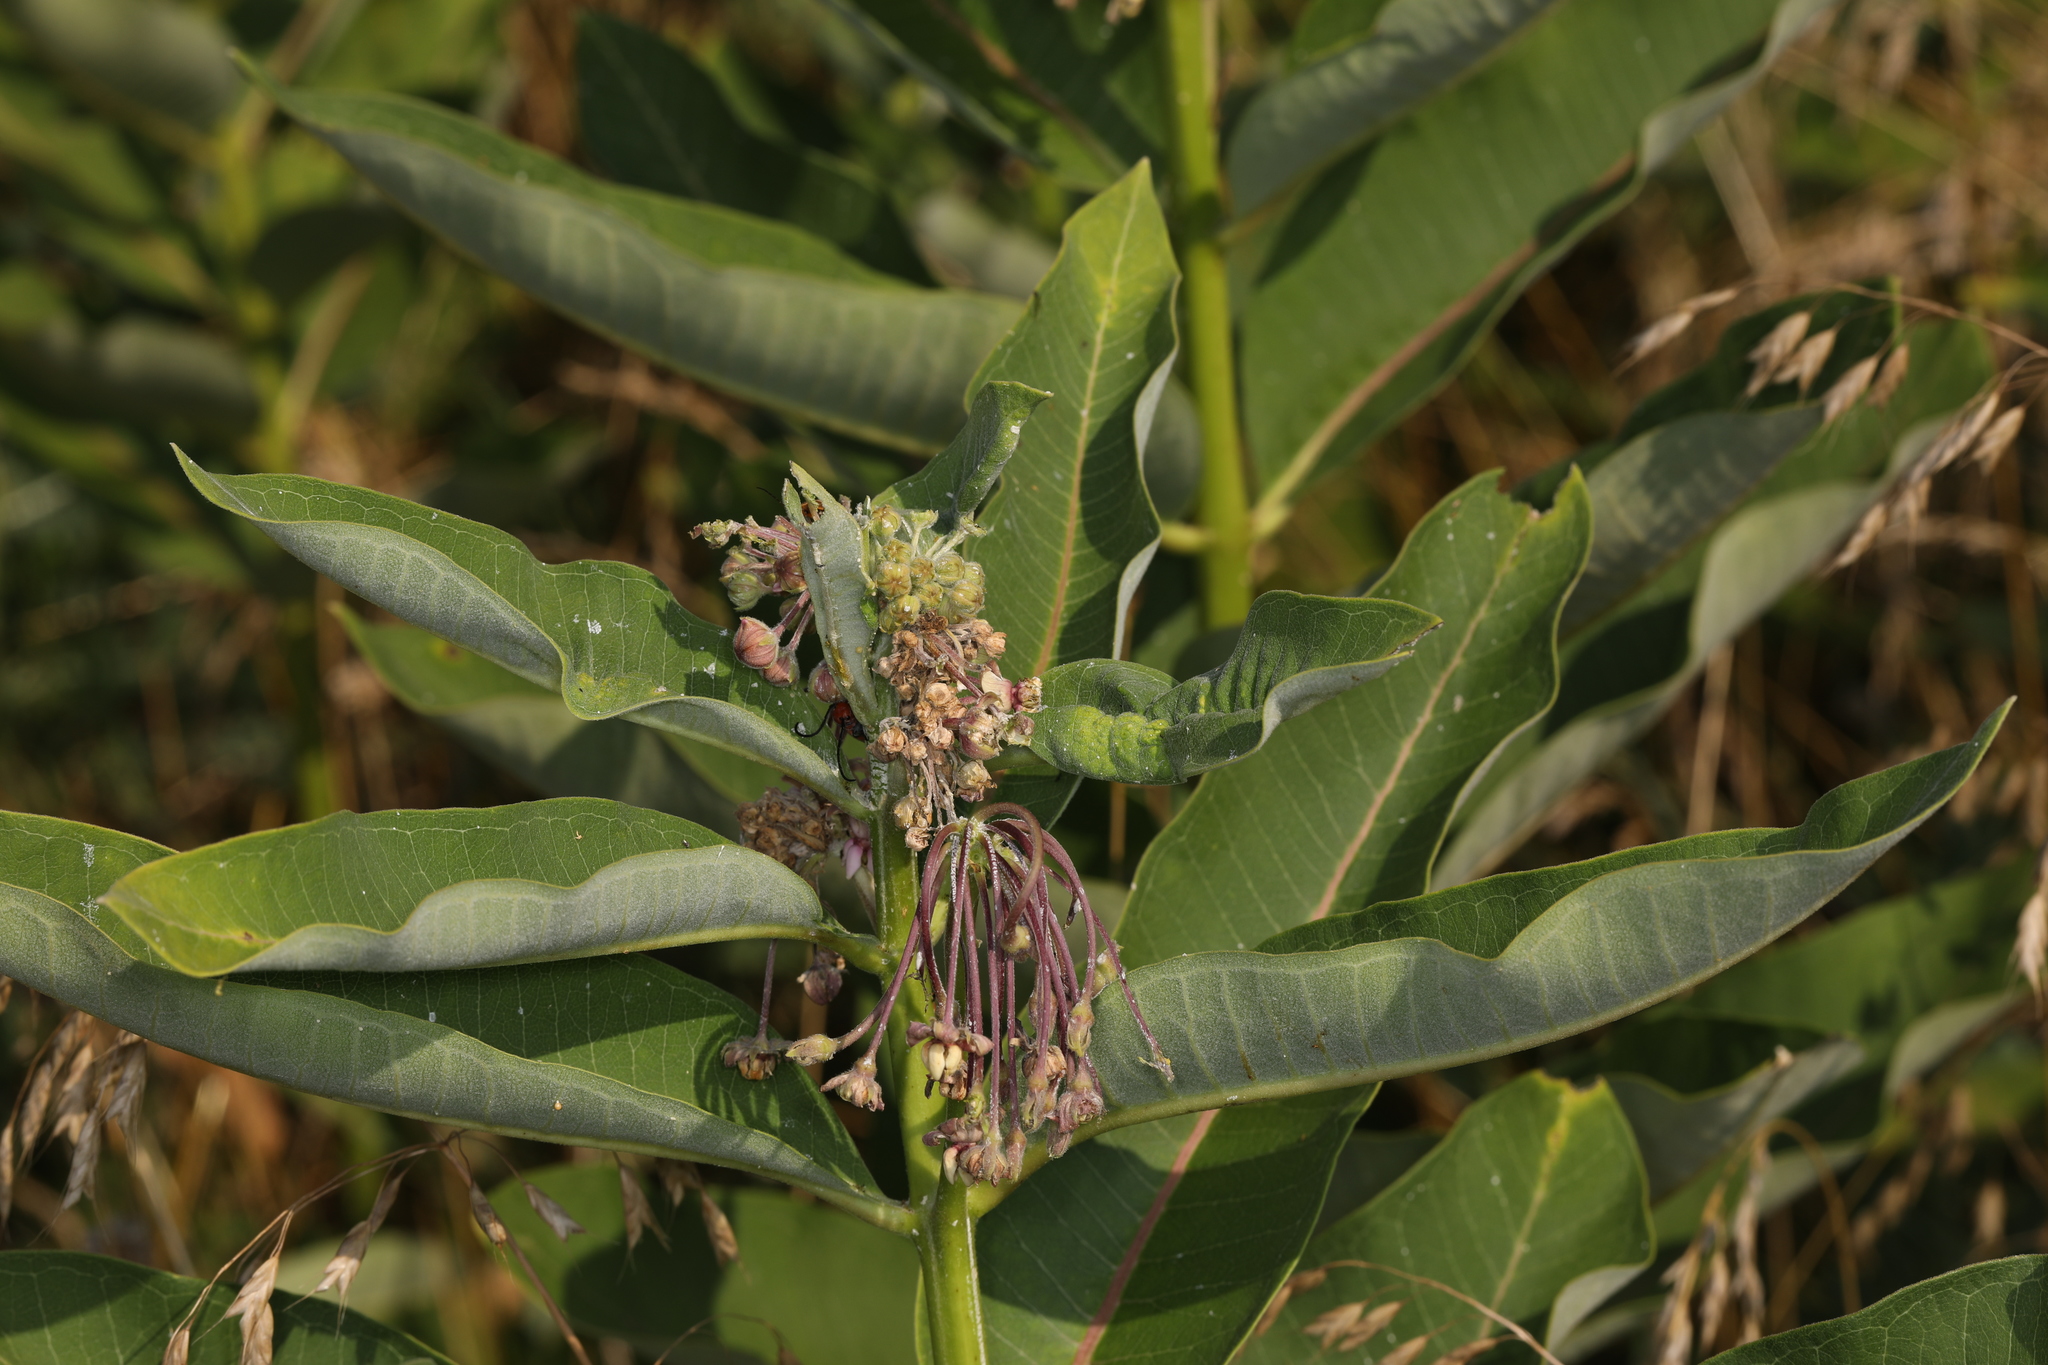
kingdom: Plantae
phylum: Tracheophyta
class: Magnoliopsida
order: Gentianales
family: Apocynaceae
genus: Asclepias
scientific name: Asclepias syriaca
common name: Common milkweed
